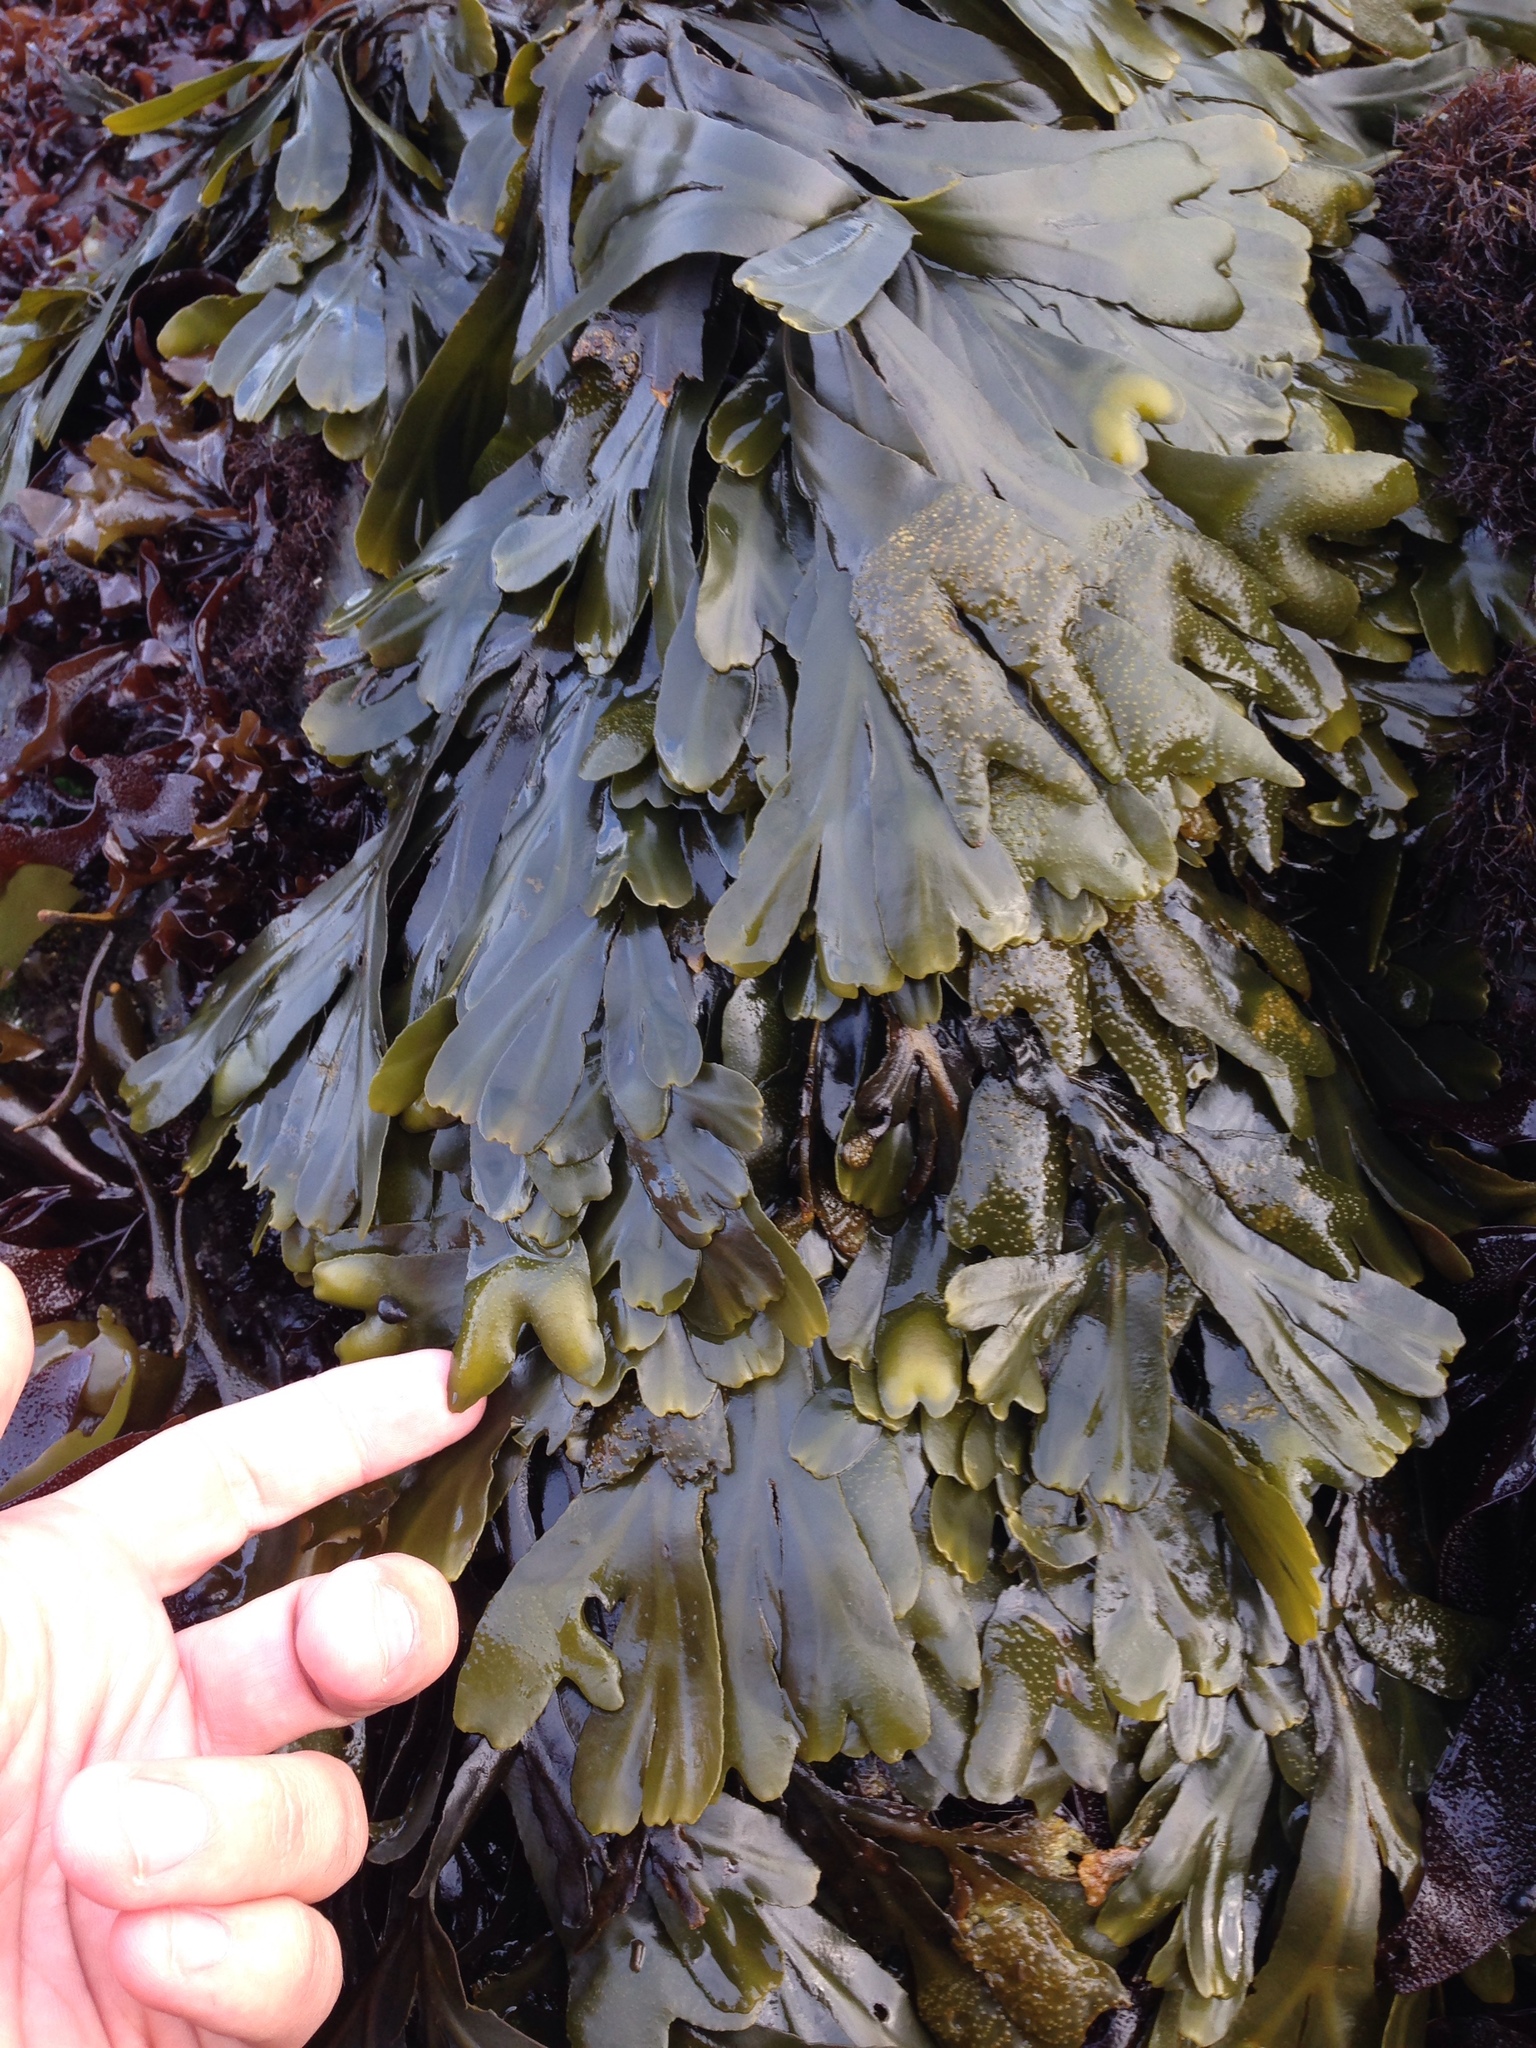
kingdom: Chromista
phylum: Ochrophyta
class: Phaeophyceae
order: Fucales
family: Fucaceae
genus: Fucus
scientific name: Fucus distichus
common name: Rockweed
